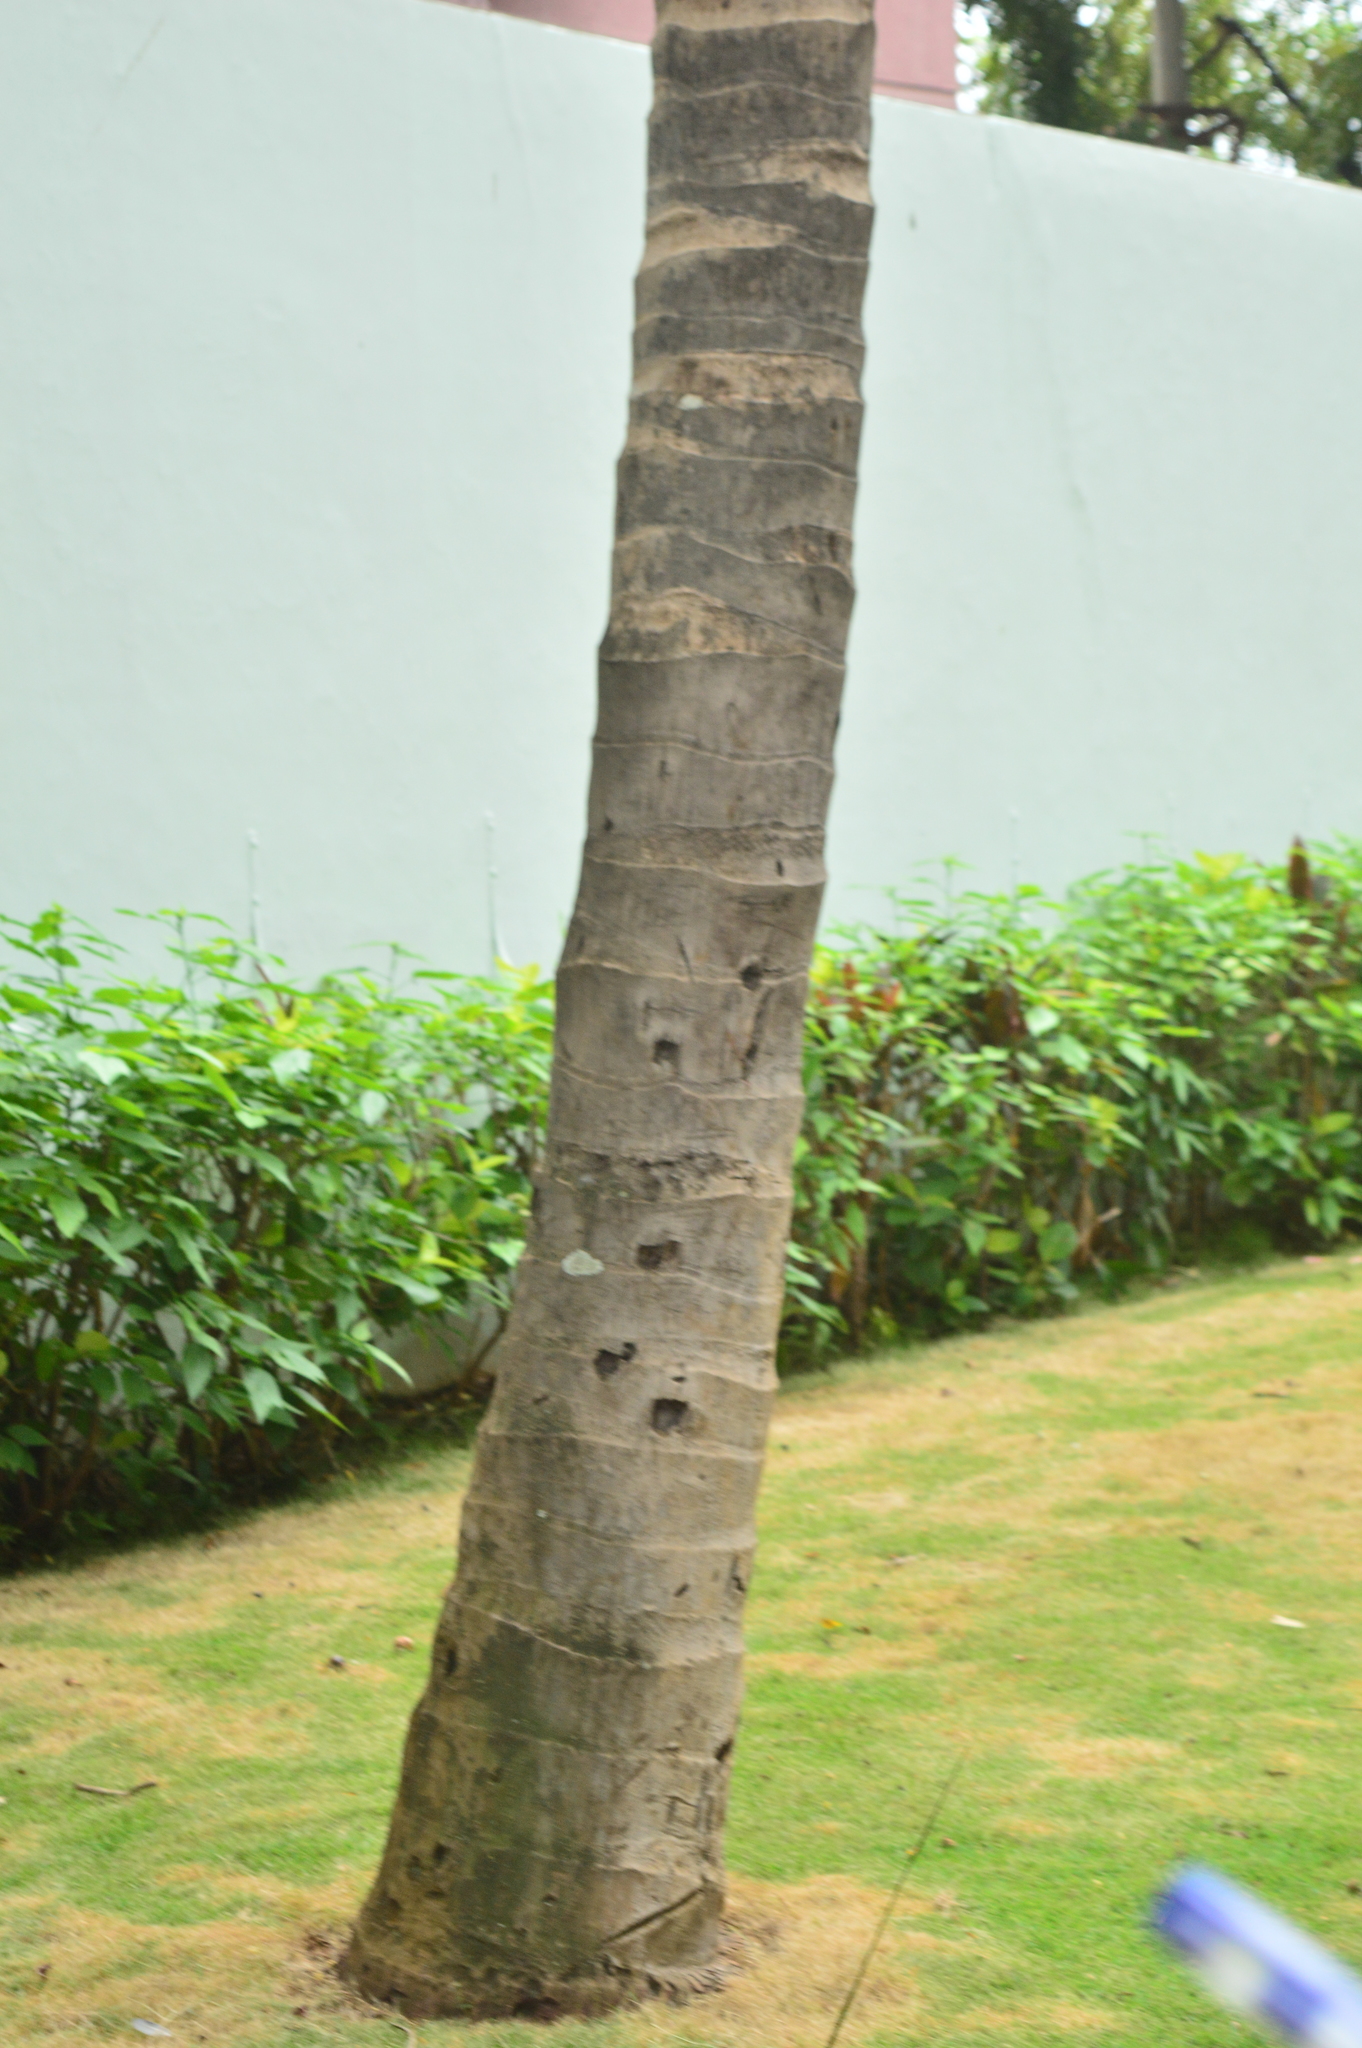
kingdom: Plantae
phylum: Tracheophyta
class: Liliopsida
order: Arecales
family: Arecaceae
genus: Cocos
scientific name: Cocos nucifera
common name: Coconut palm
